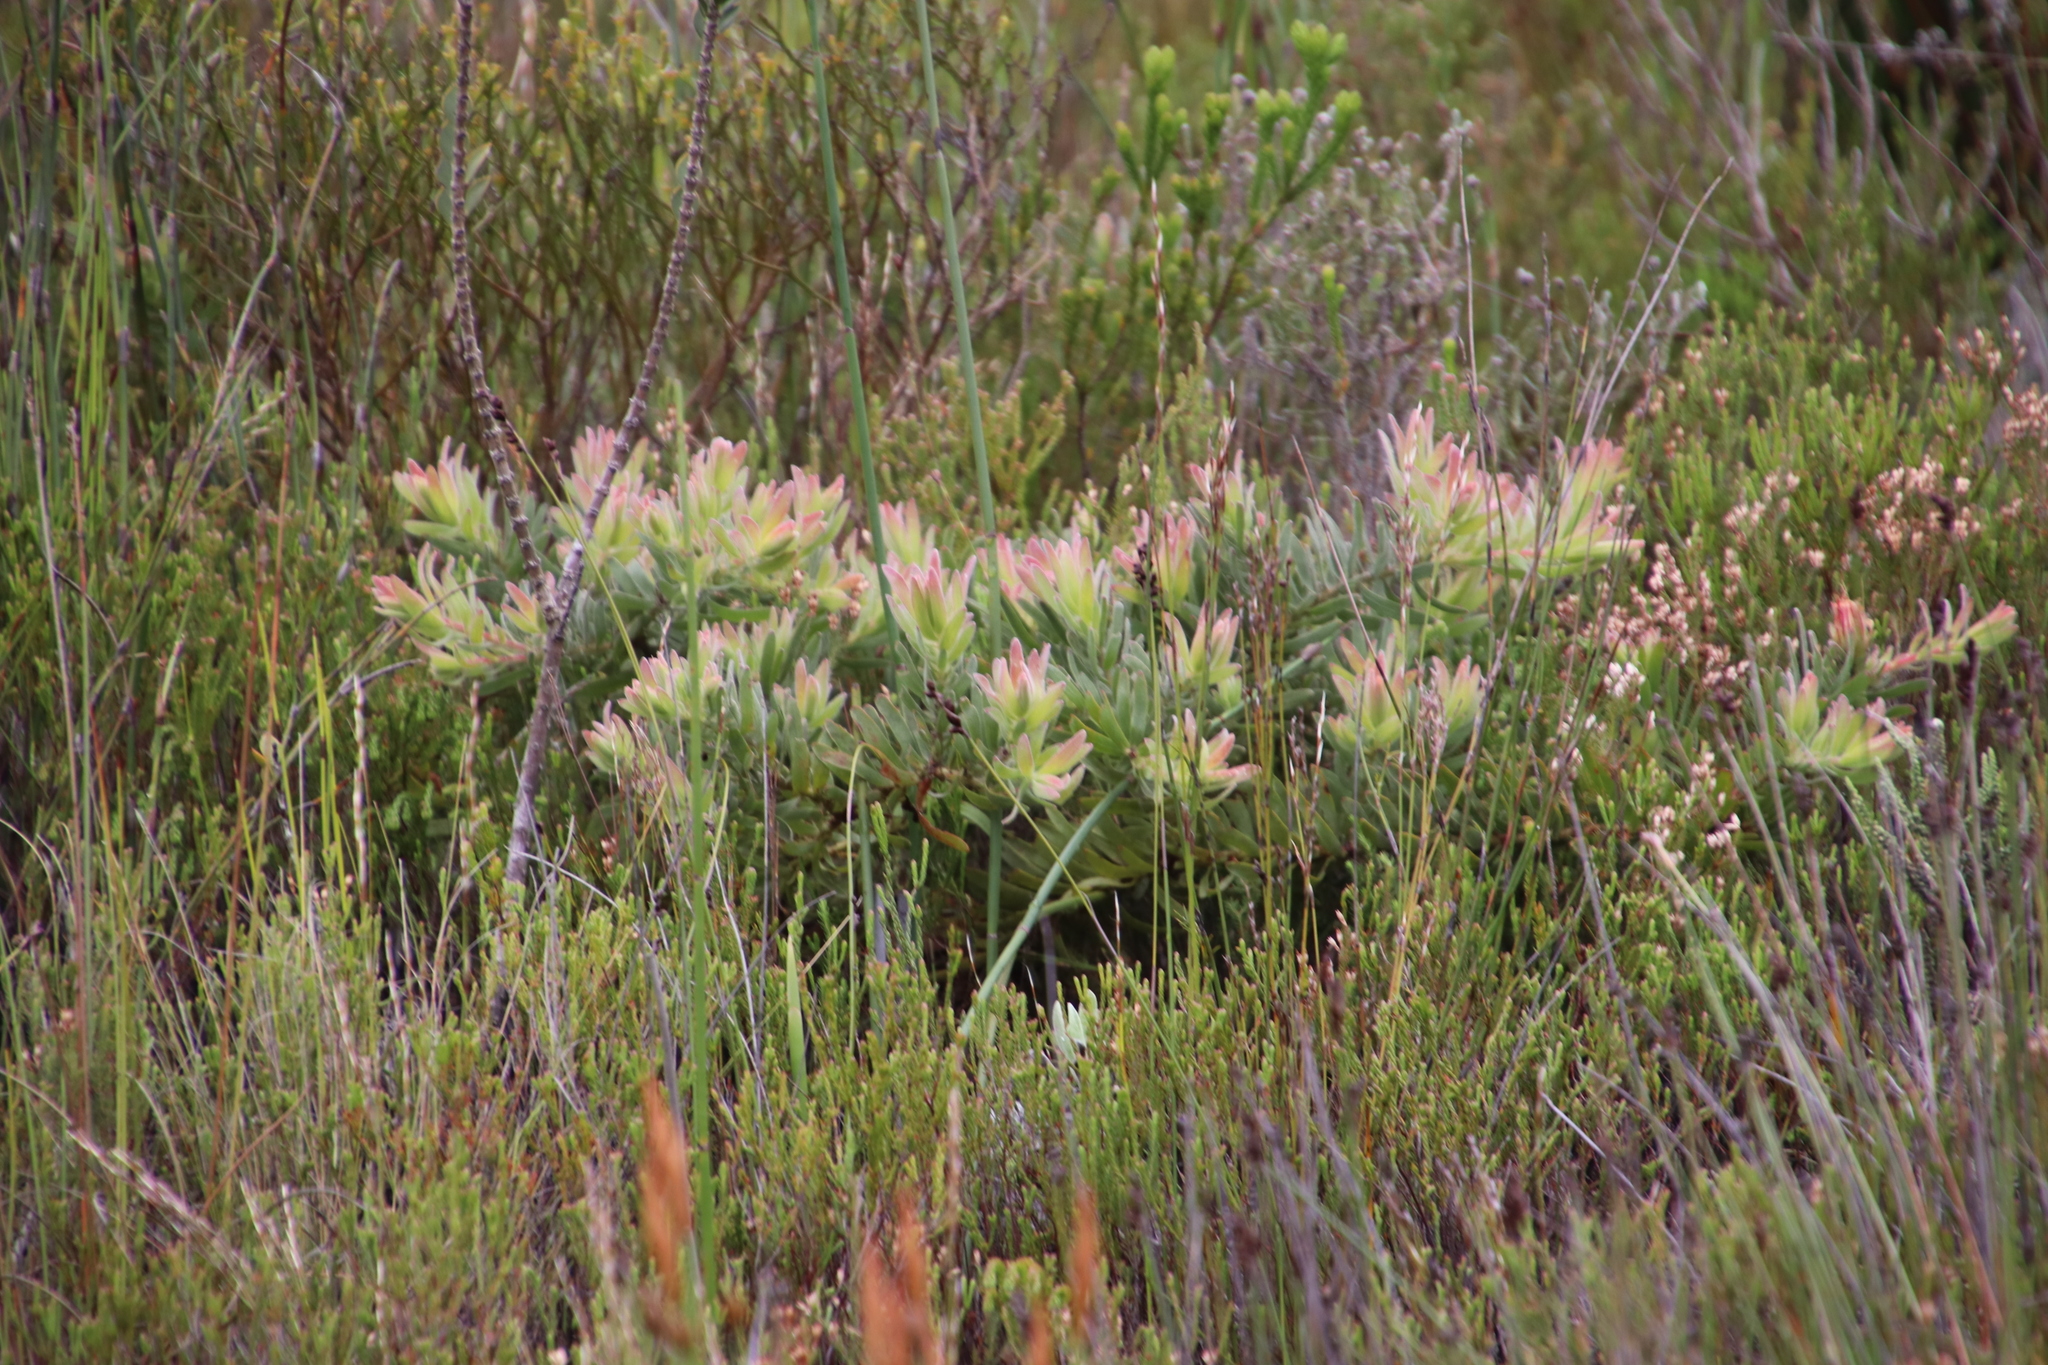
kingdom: Plantae
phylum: Tracheophyta
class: Magnoliopsida
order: Proteales
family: Proteaceae
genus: Leucospermum
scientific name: Leucospermum gracile
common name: Hermanus pincushion
